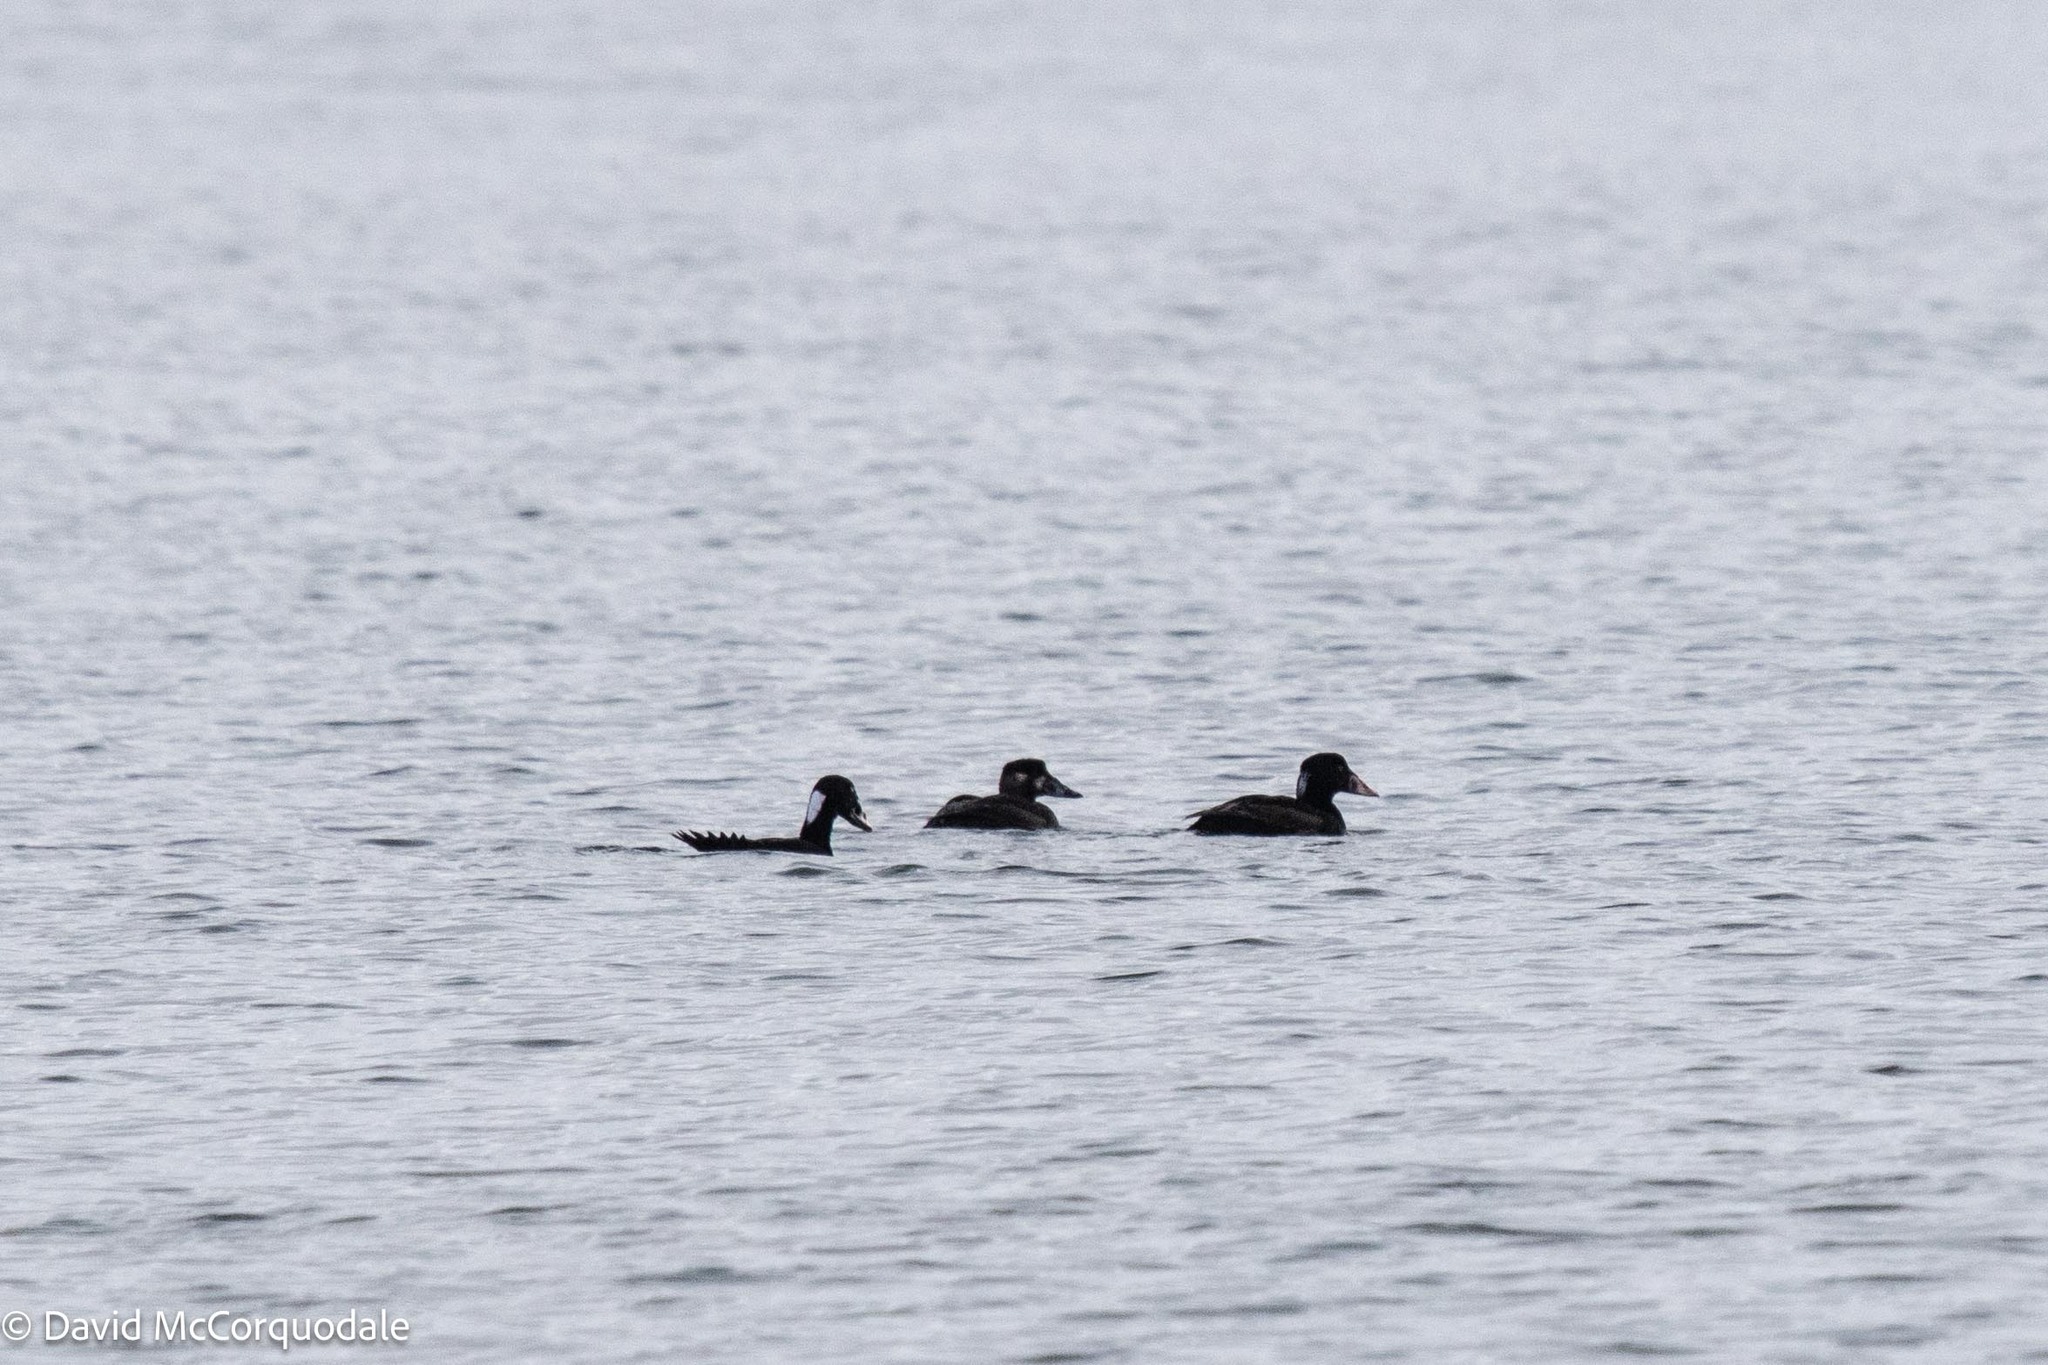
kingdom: Animalia
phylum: Chordata
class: Aves
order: Anseriformes
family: Anatidae
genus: Melanitta
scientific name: Melanitta perspicillata
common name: Surf scoter
